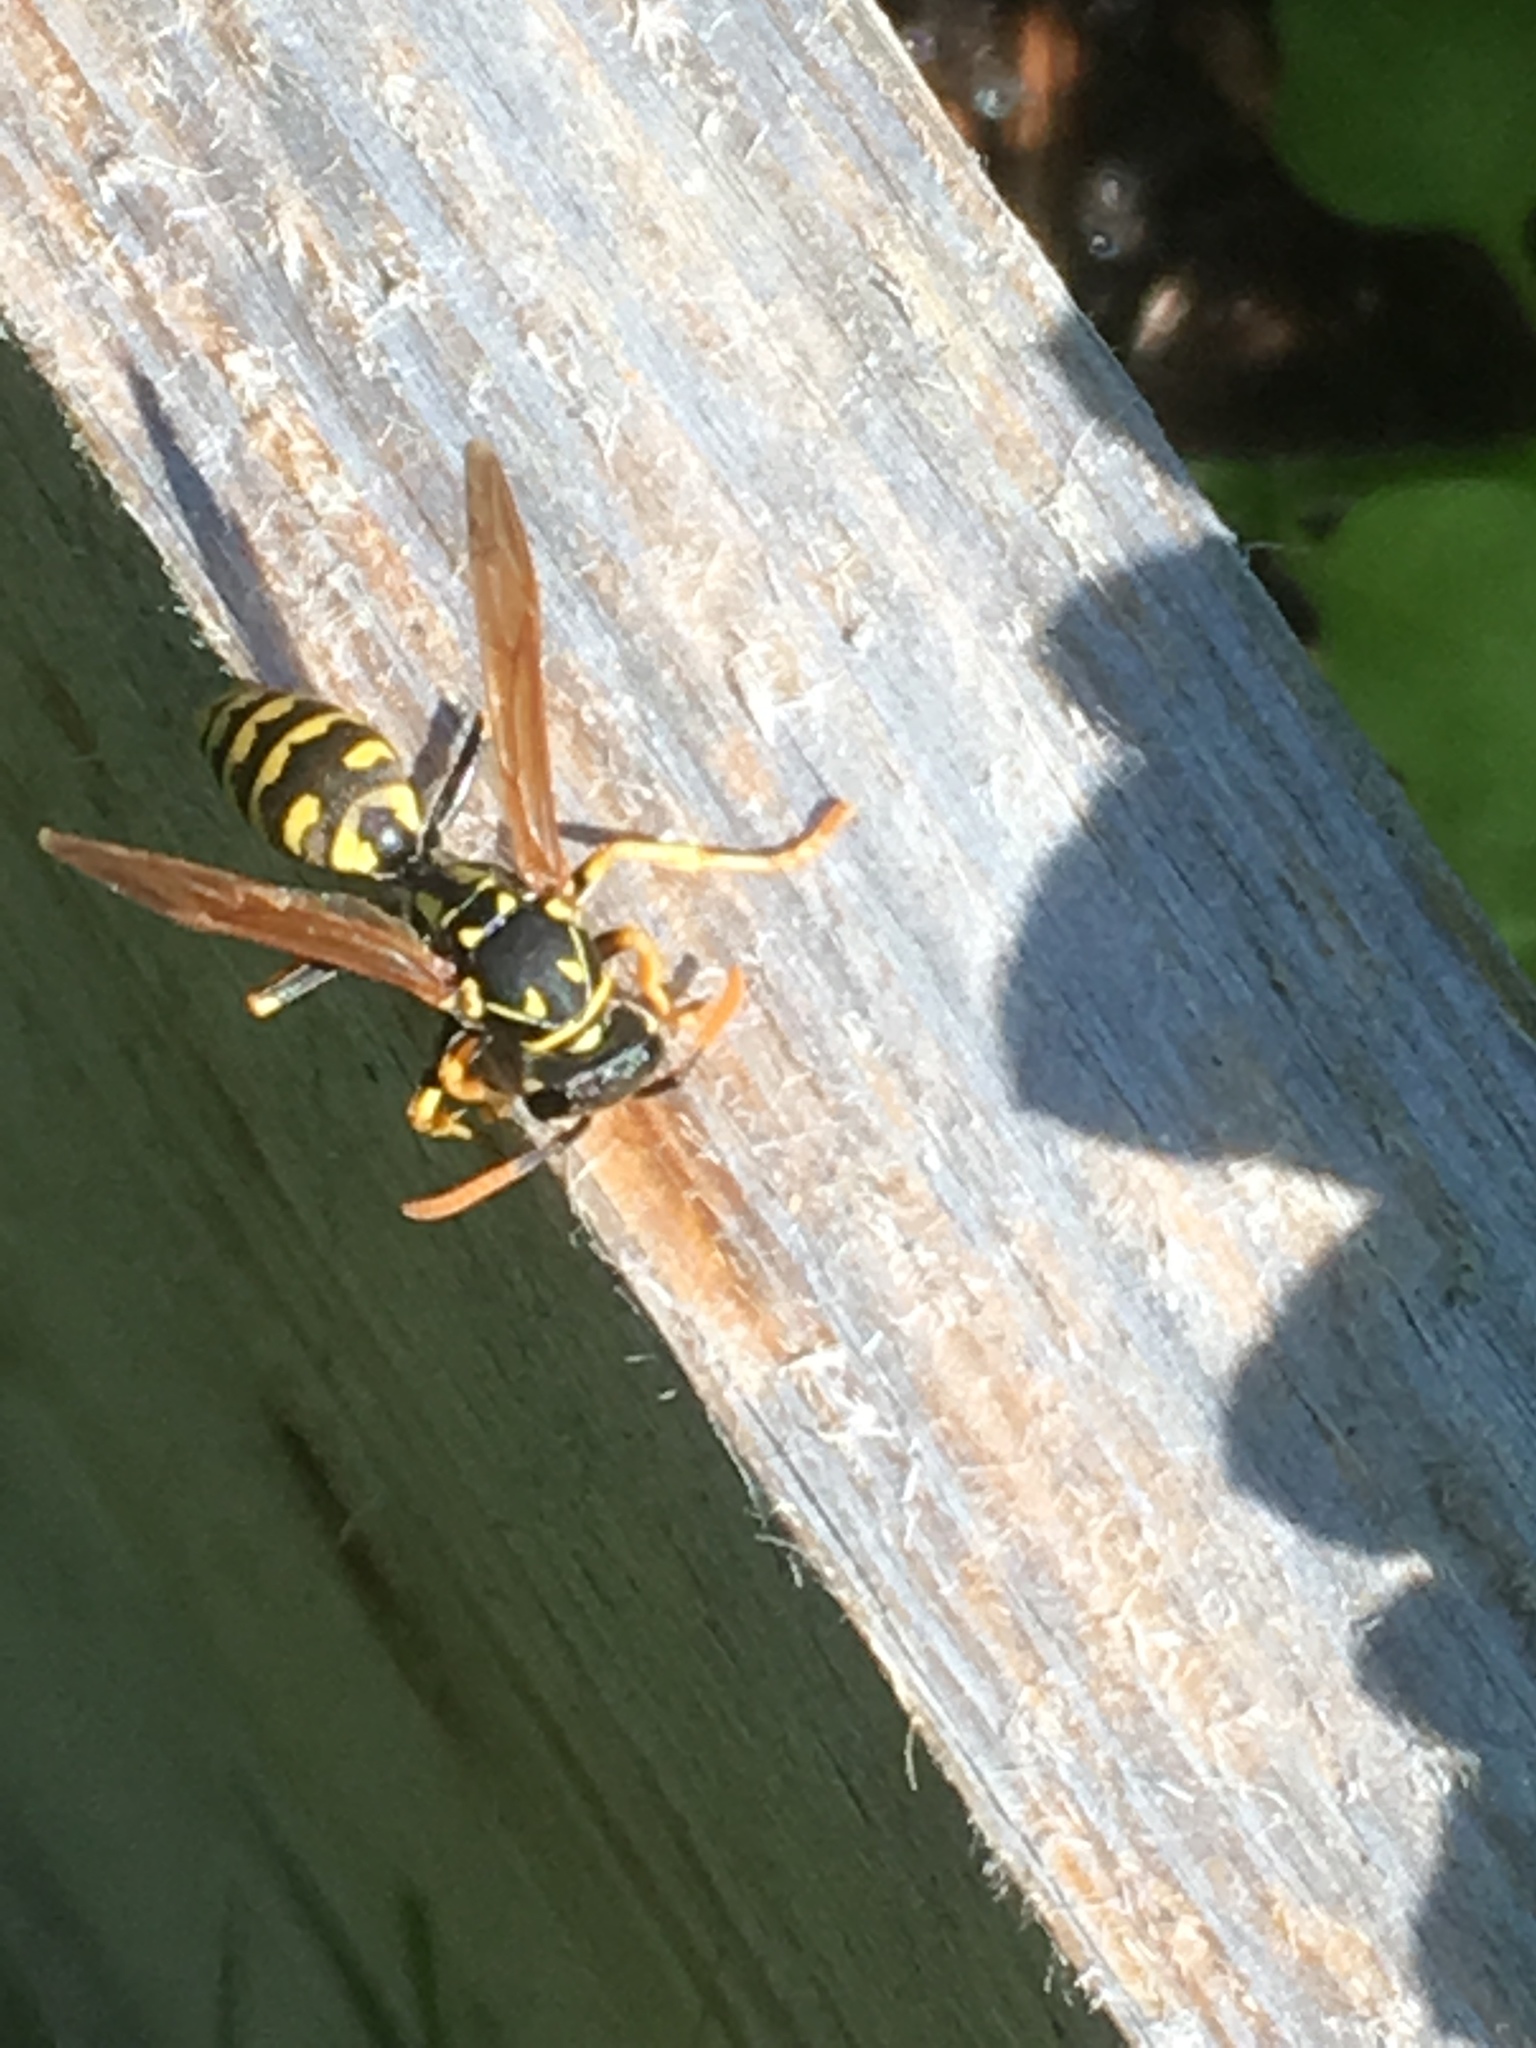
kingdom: Animalia
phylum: Arthropoda
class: Insecta
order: Hymenoptera
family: Eumenidae
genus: Polistes
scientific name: Polistes dominula
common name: Paper wasp
